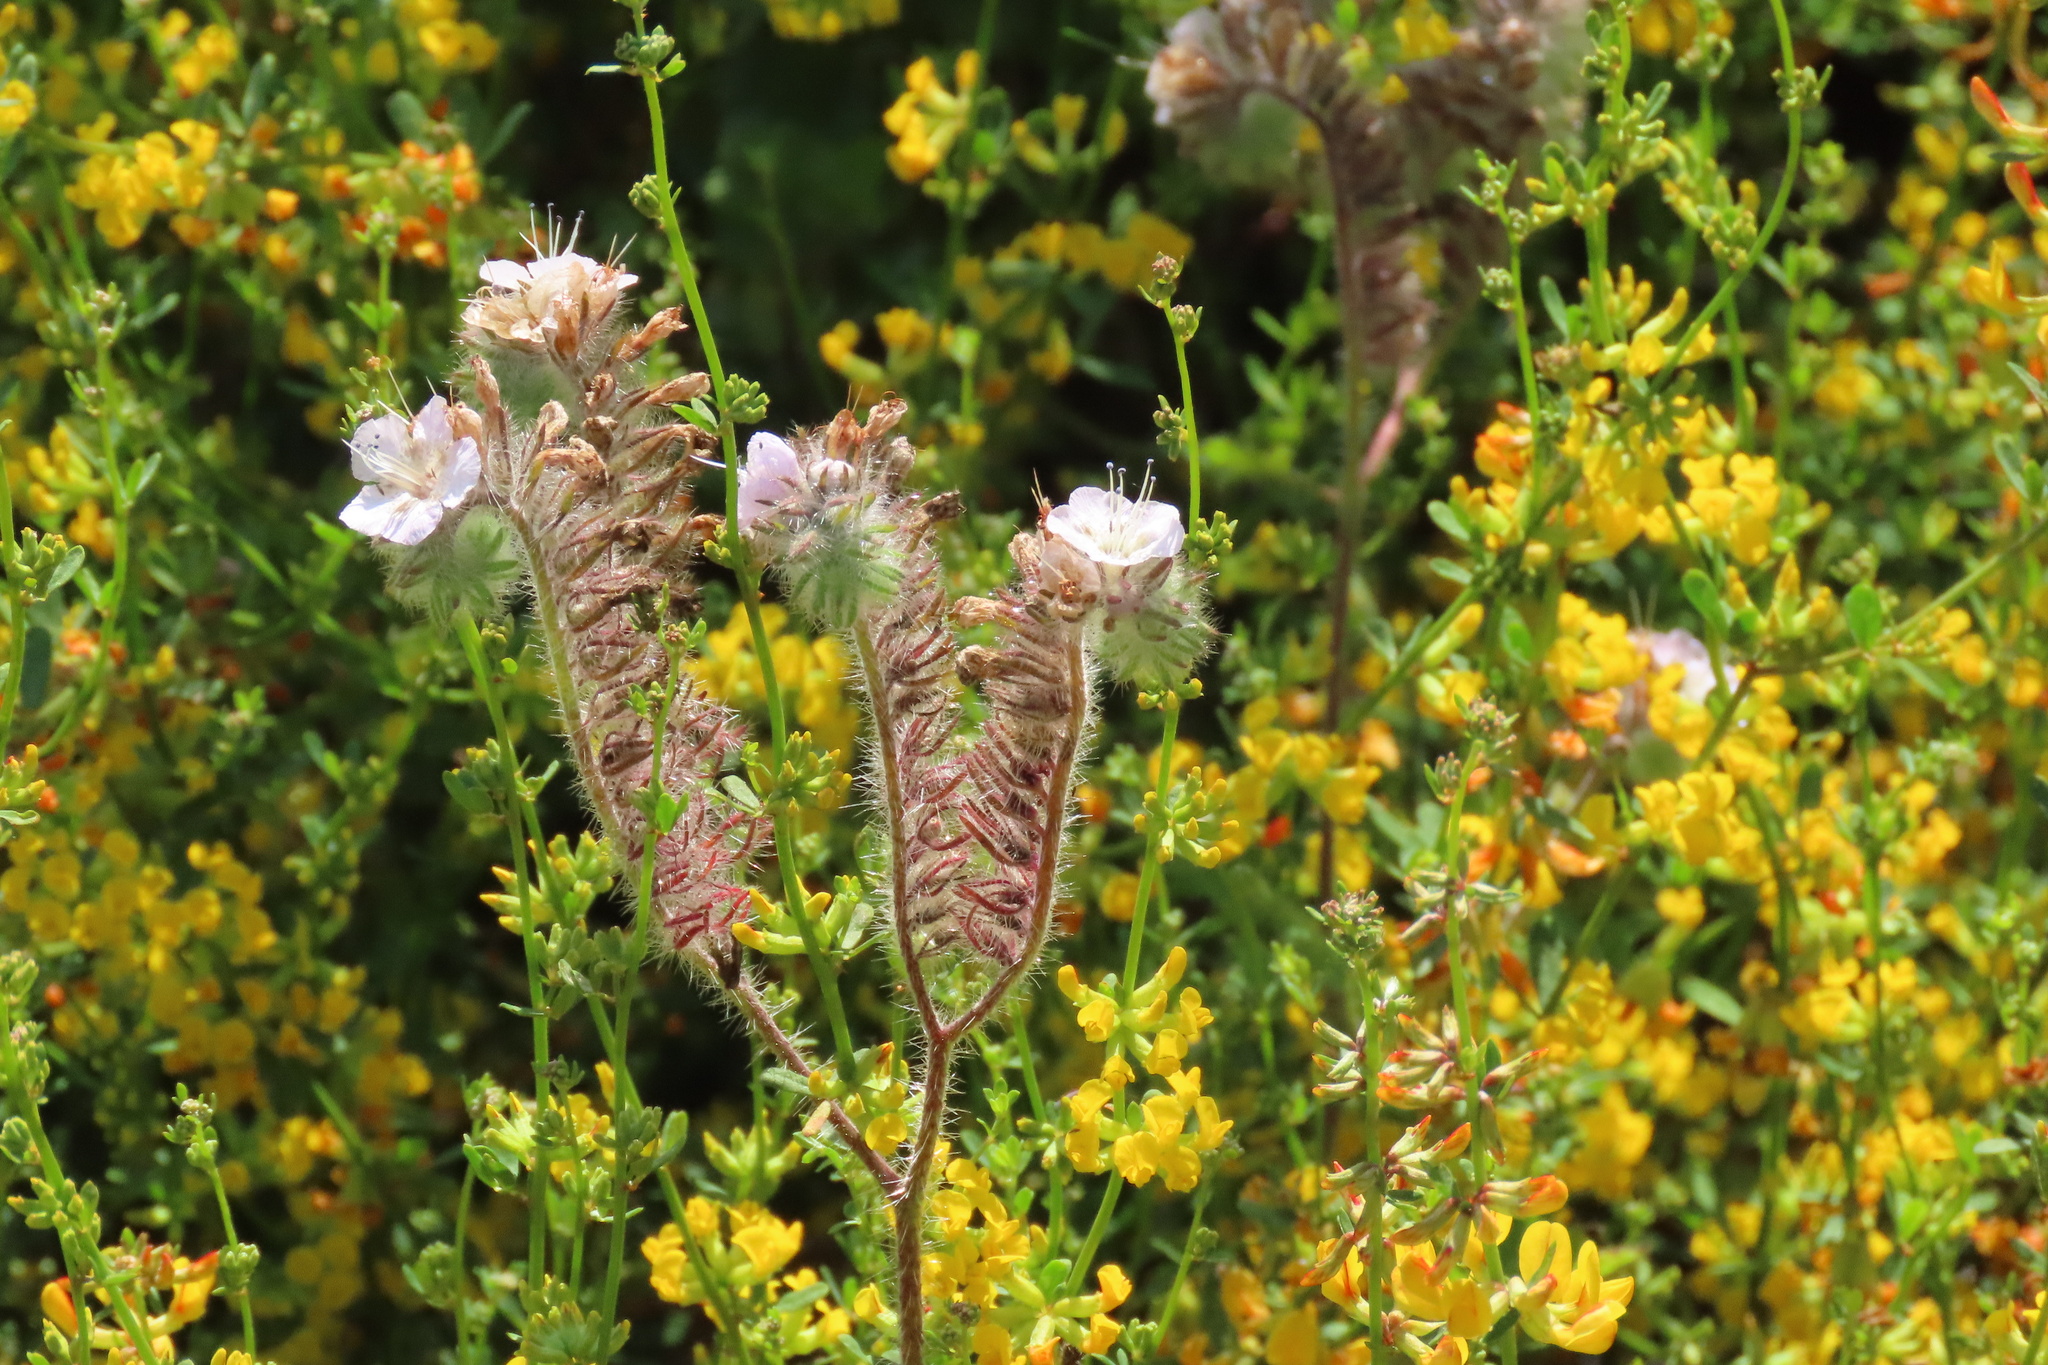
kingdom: Plantae
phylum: Tracheophyta
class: Magnoliopsida
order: Boraginales
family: Hydrophyllaceae
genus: Phacelia
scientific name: Phacelia cicutaria
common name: Caterpillar phacelia
